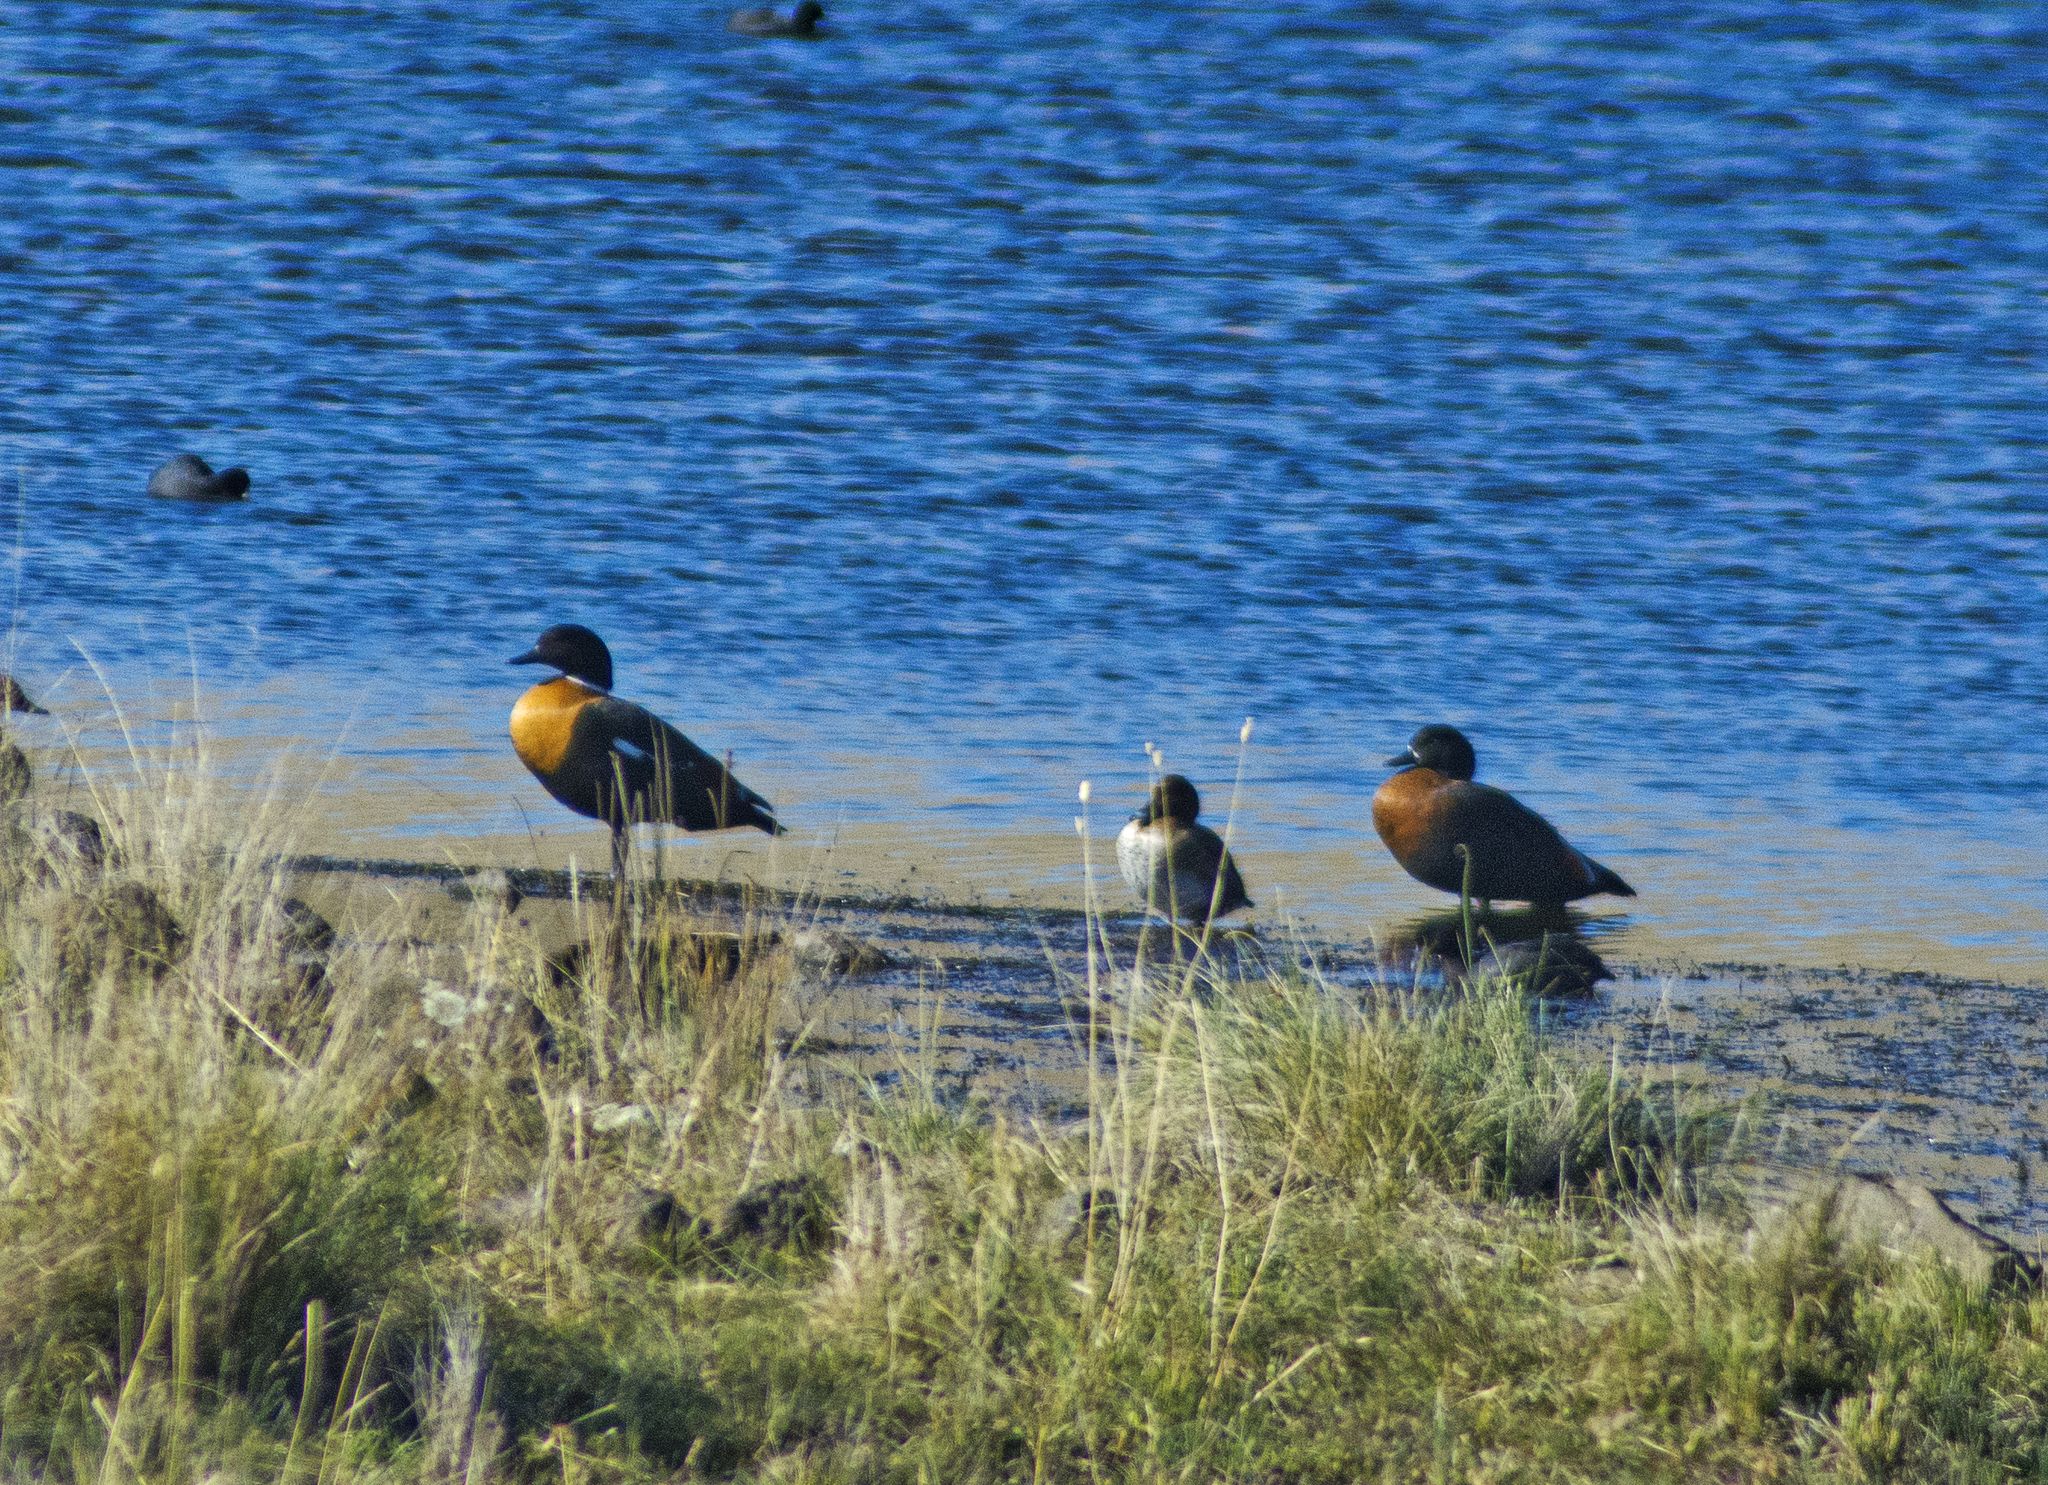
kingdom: Animalia
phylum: Chordata
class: Aves
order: Anseriformes
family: Anatidae
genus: Tadorna
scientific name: Tadorna tadornoides
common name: Australian shelduck
